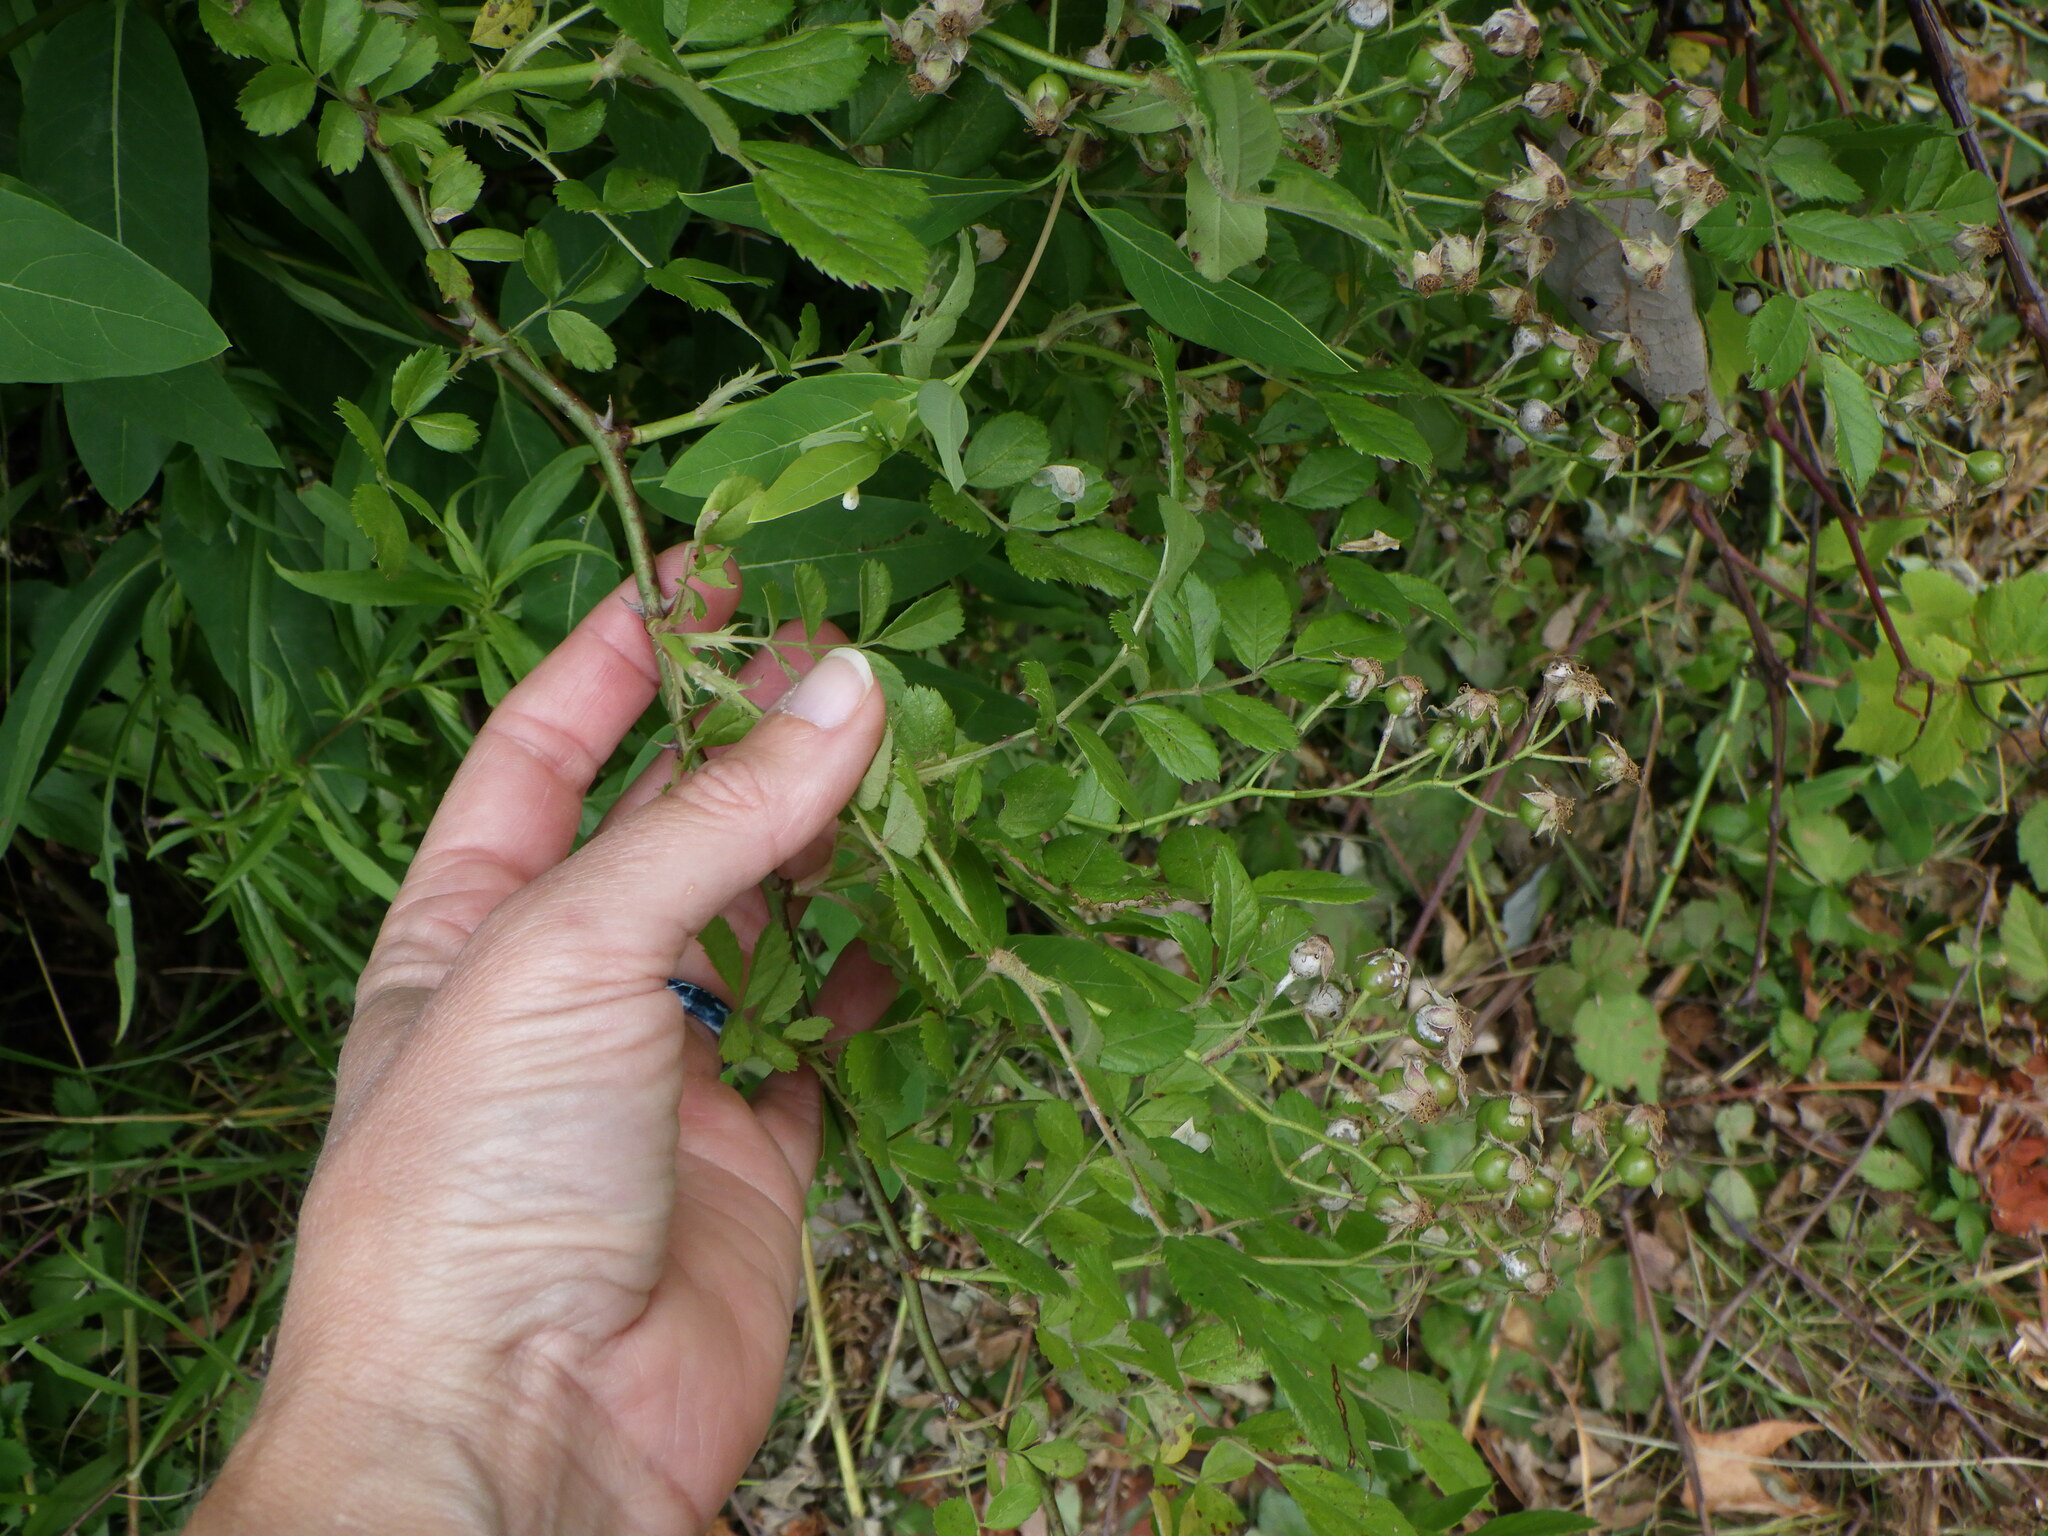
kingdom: Plantae
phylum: Tracheophyta
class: Magnoliopsida
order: Rosales
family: Rosaceae
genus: Rosa
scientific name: Rosa multiflora
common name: Multiflora rose
